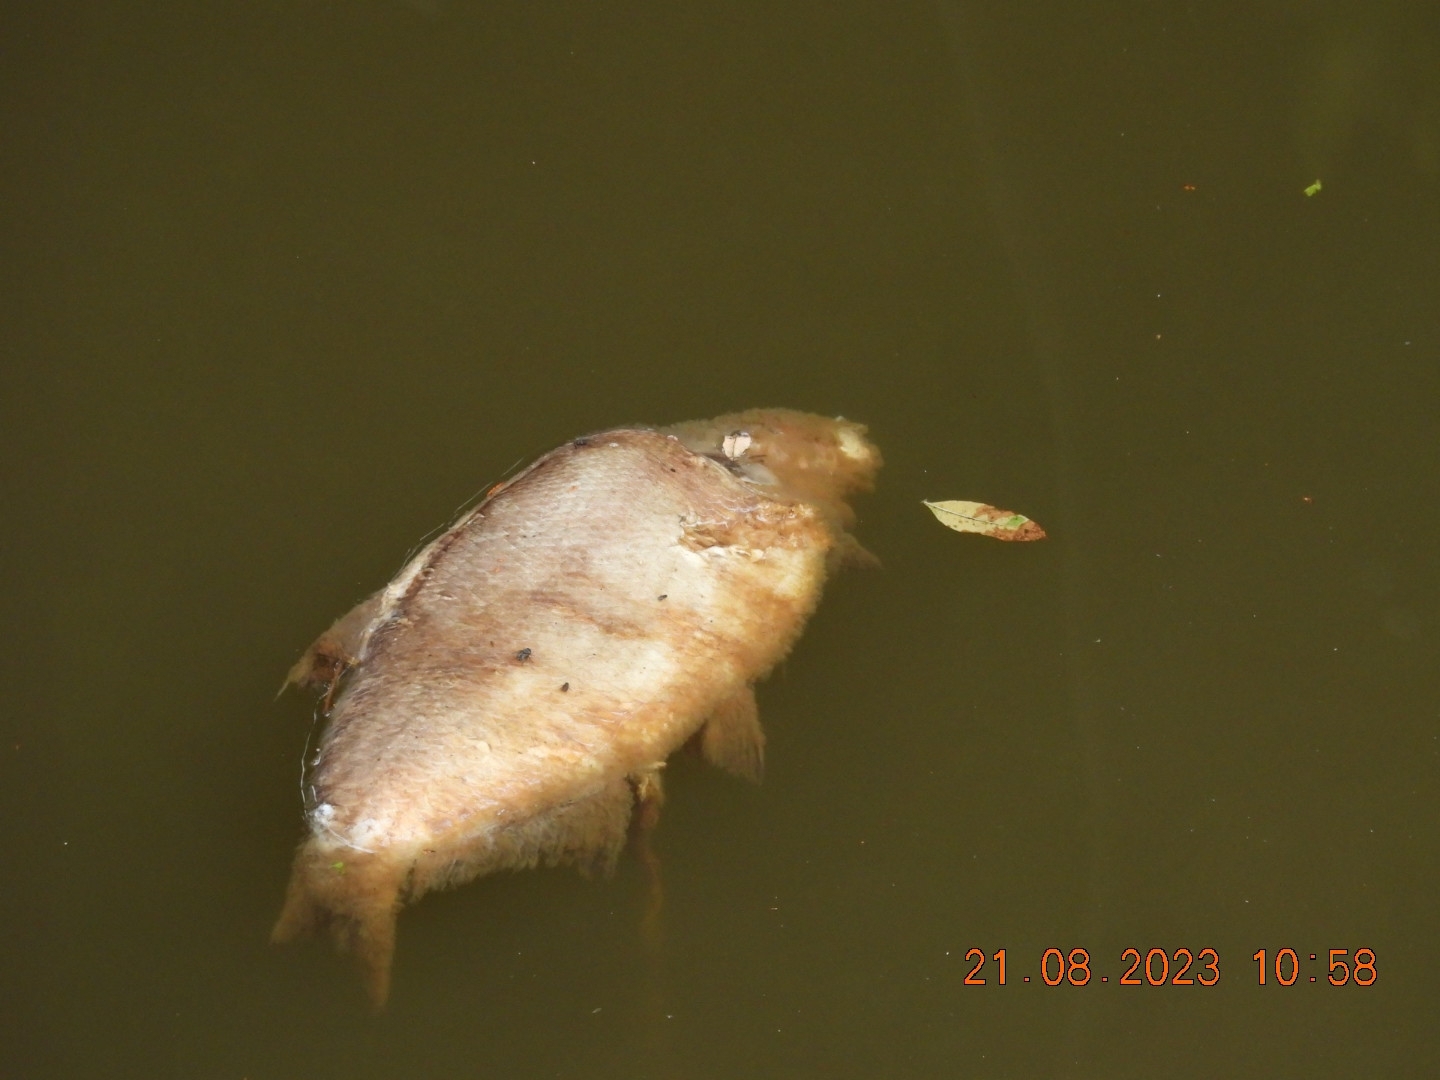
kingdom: Animalia
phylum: Chordata
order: Cypriniformes
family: Cyprinidae
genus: Abramis
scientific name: Abramis brama
